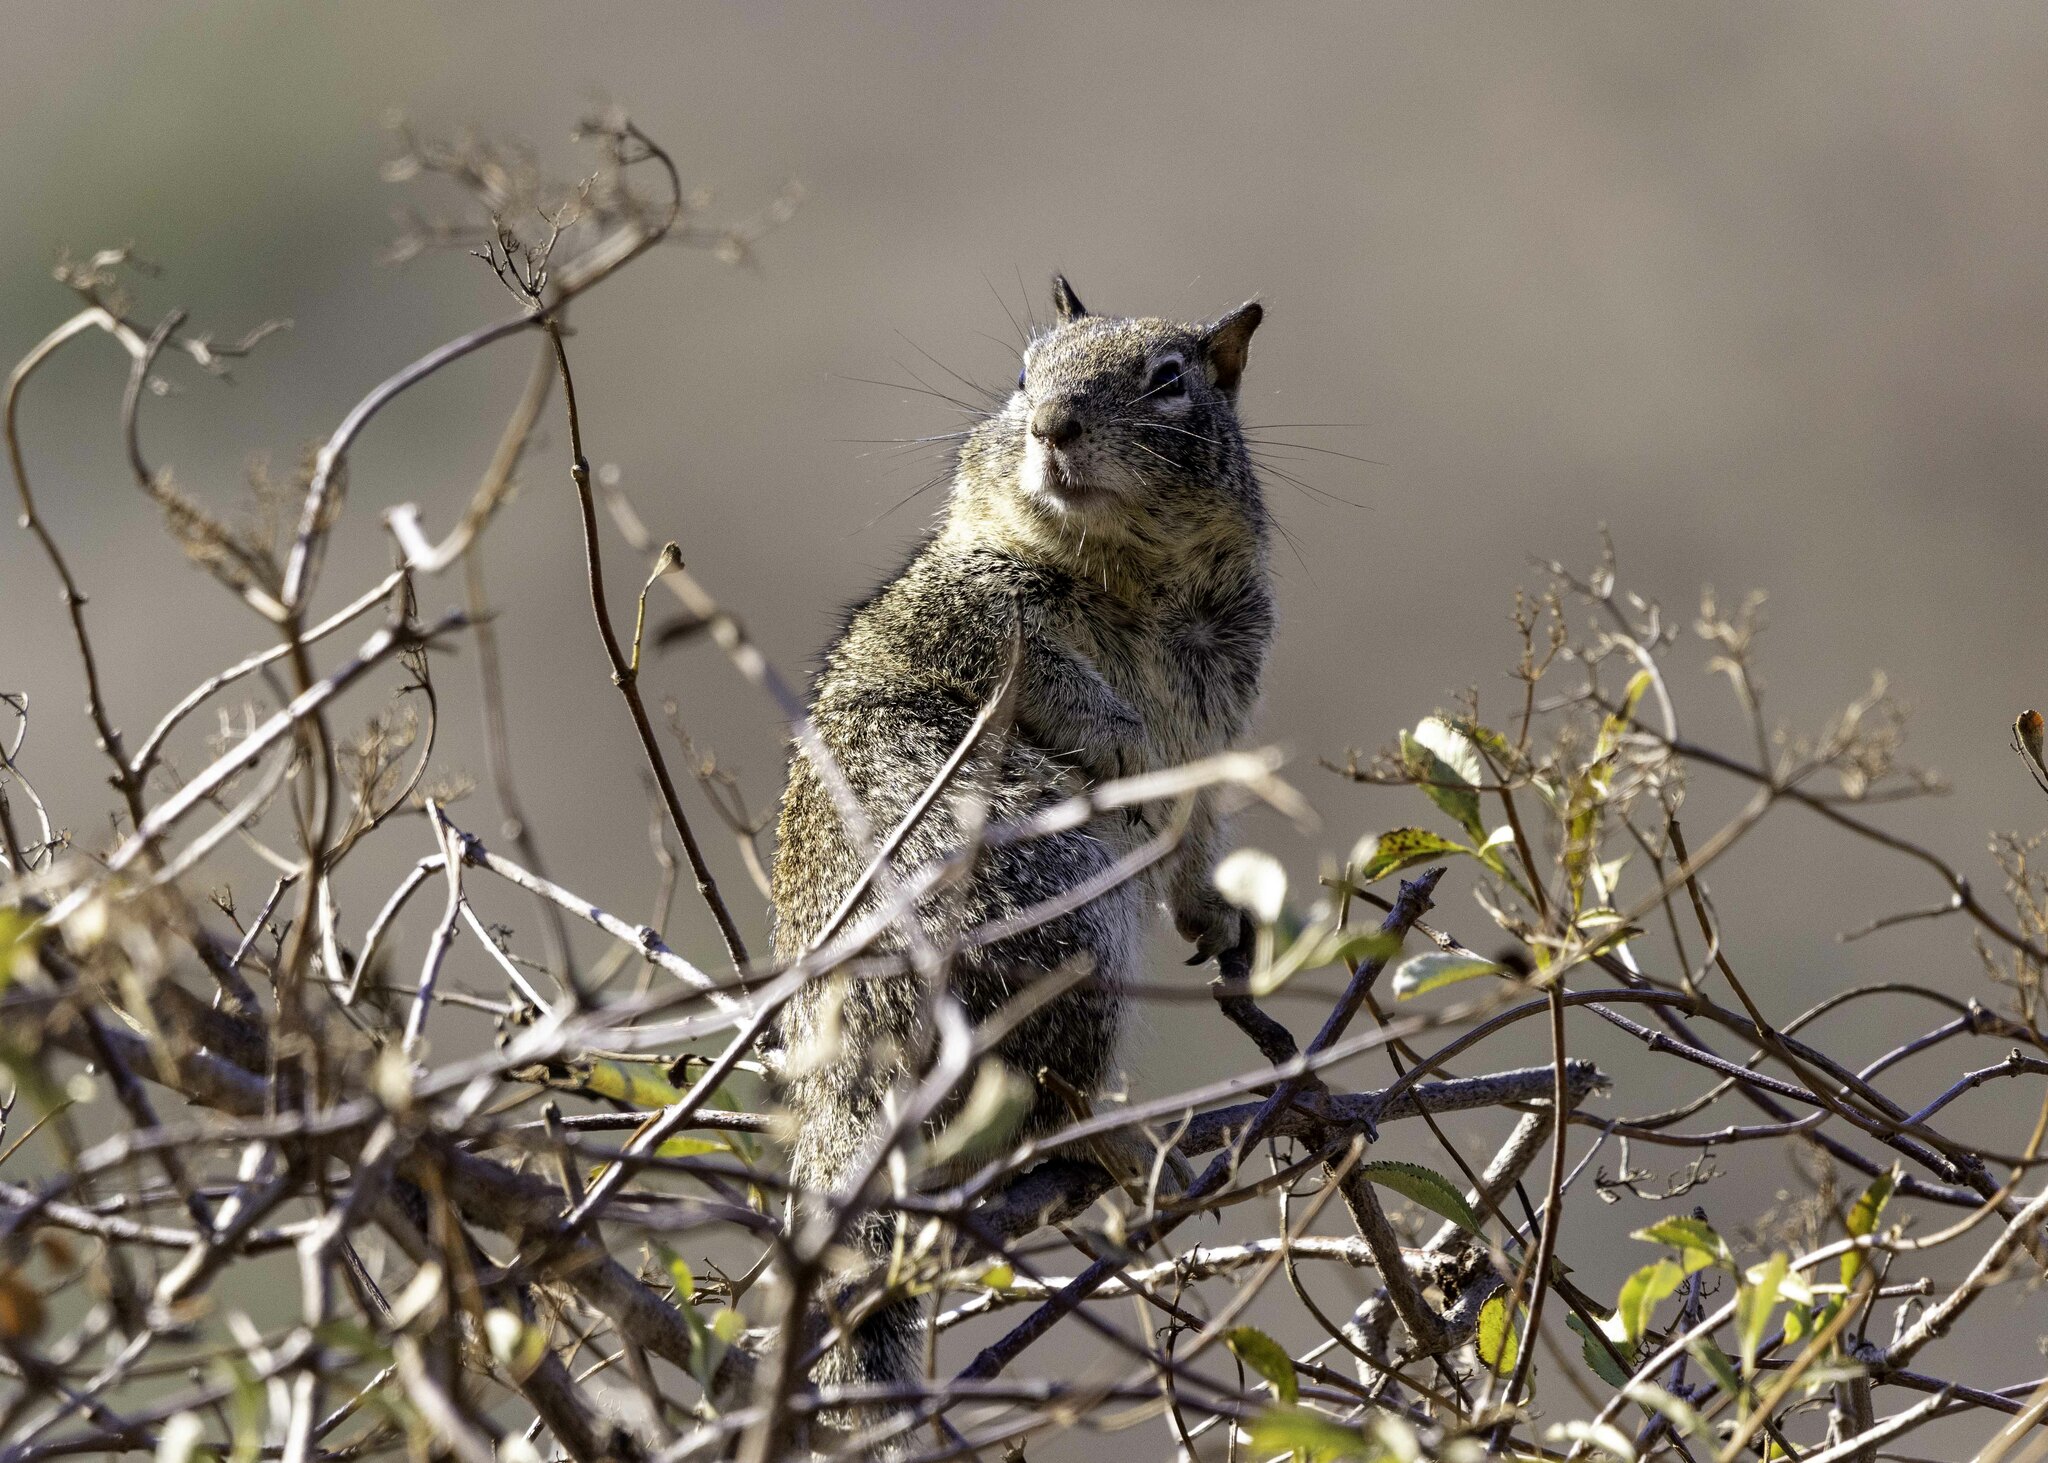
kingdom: Animalia
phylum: Chordata
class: Mammalia
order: Rodentia
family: Sciuridae
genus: Otospermophilus
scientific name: Otospermophilus beecheyi
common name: California ground squirrel
